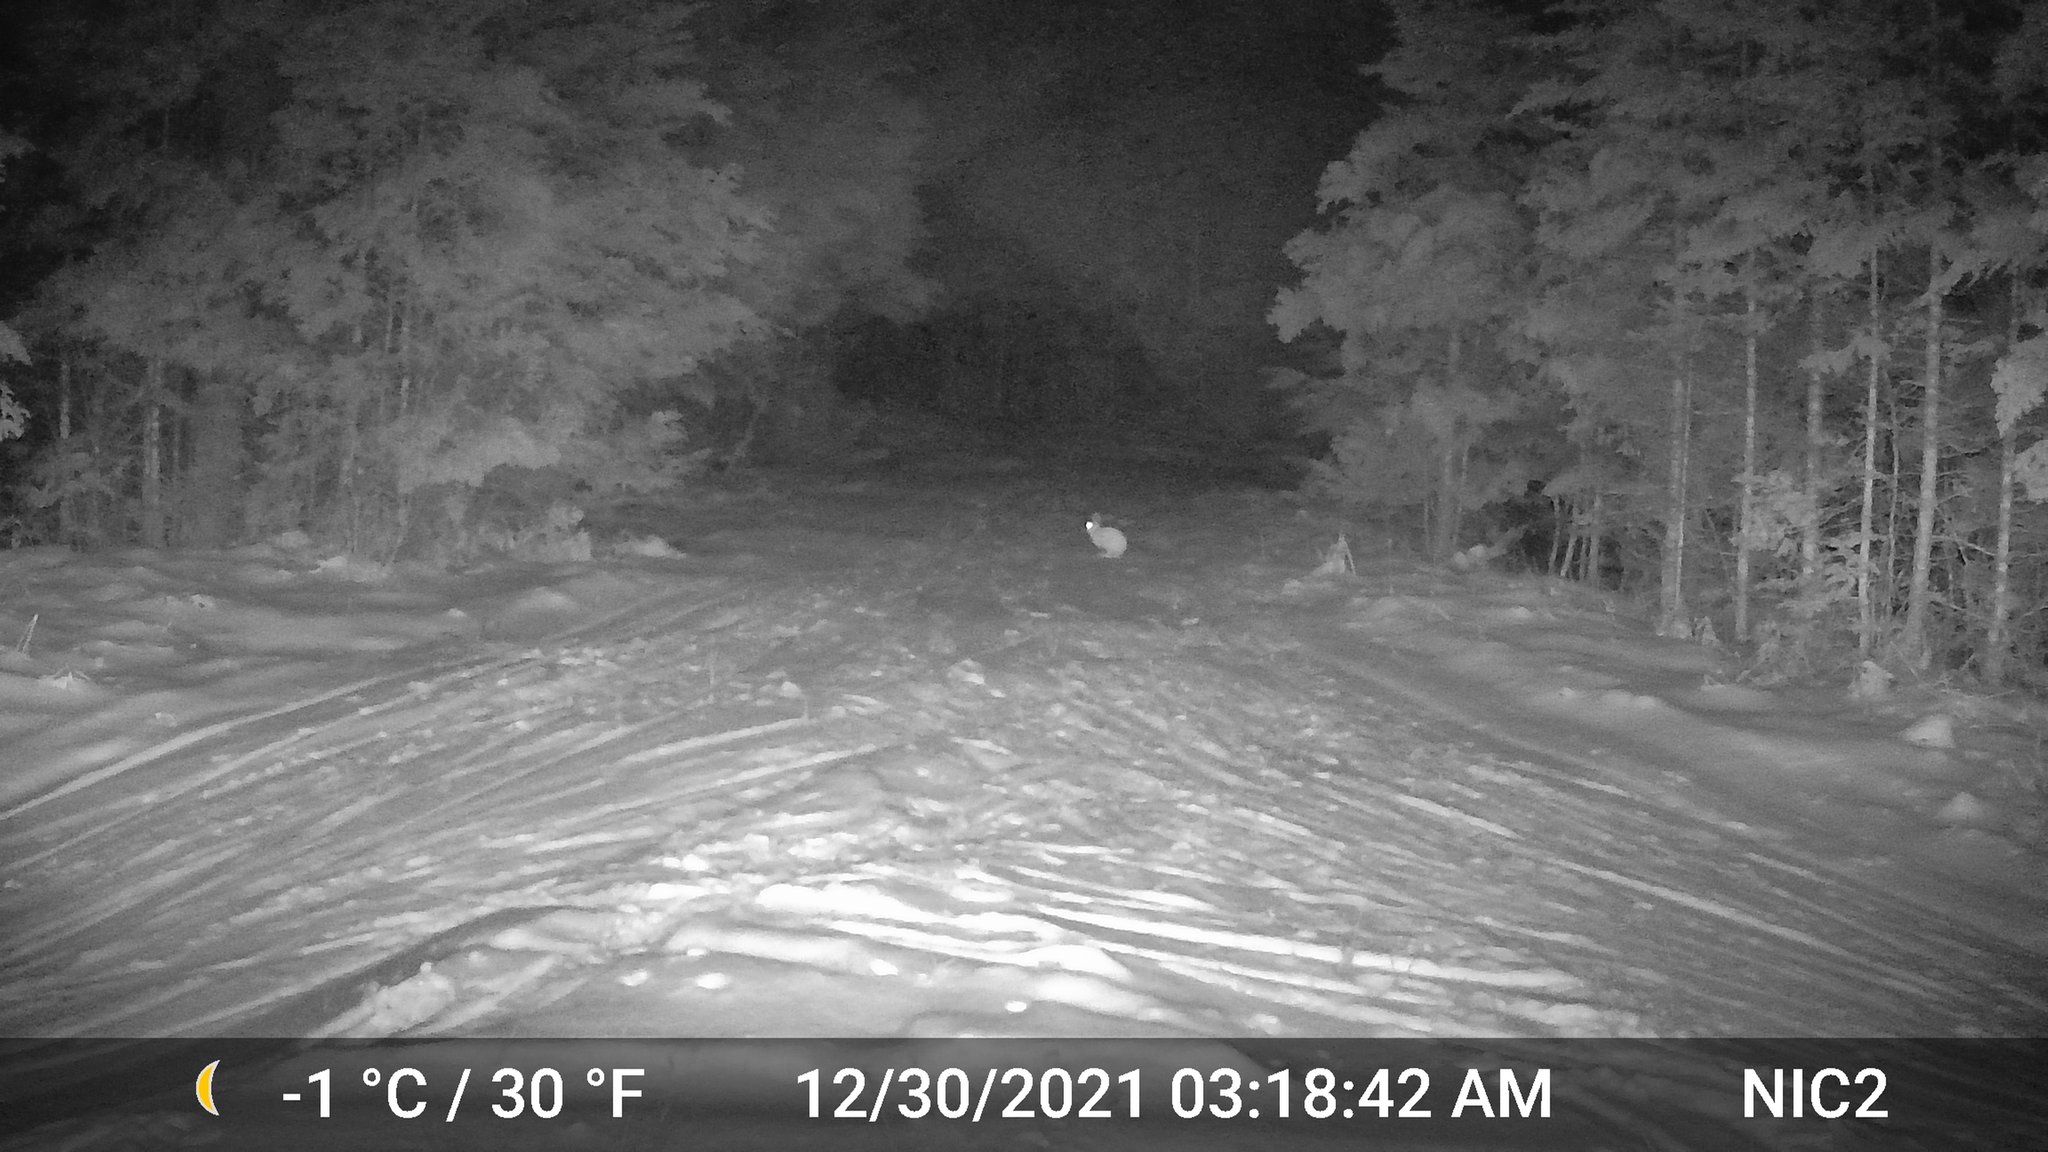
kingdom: Animalia
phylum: Chordata
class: Mammalia
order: Lagomorpha
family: Leporidae
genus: Lepus
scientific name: Lepus americanus
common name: Snowshoe hare
